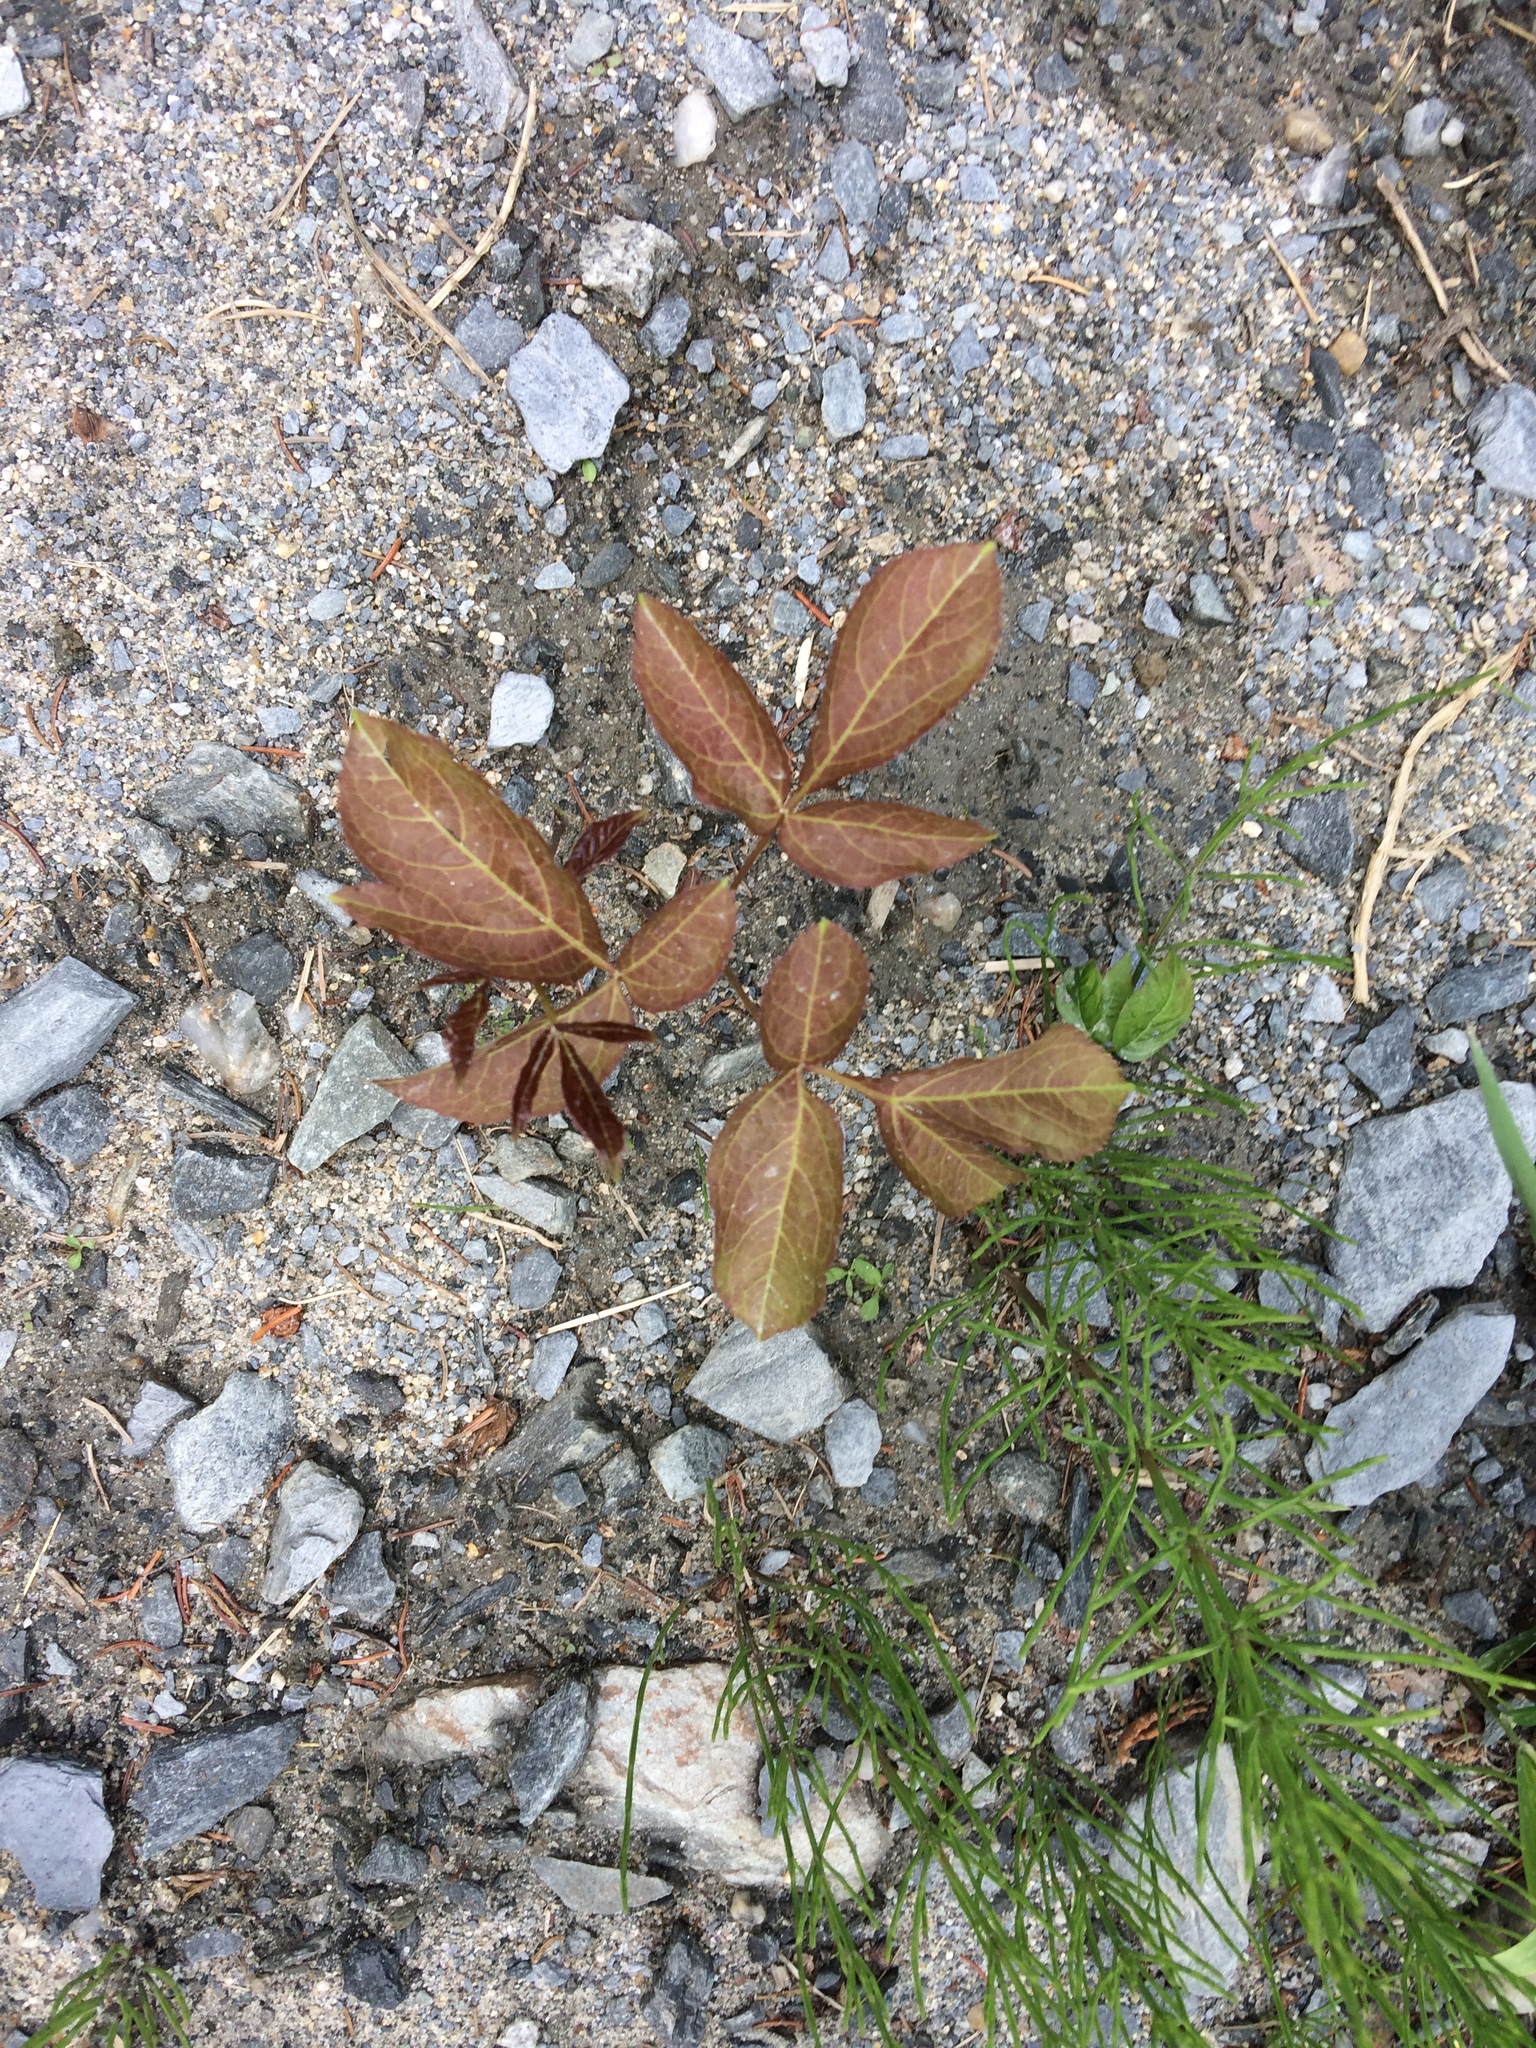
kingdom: Plantae
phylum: Tracheophyta
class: Magnoliopsida
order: Apiales
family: Araliaceae
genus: Aralia
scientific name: Aralia nudicaulis
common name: Wild sarsaparilla
